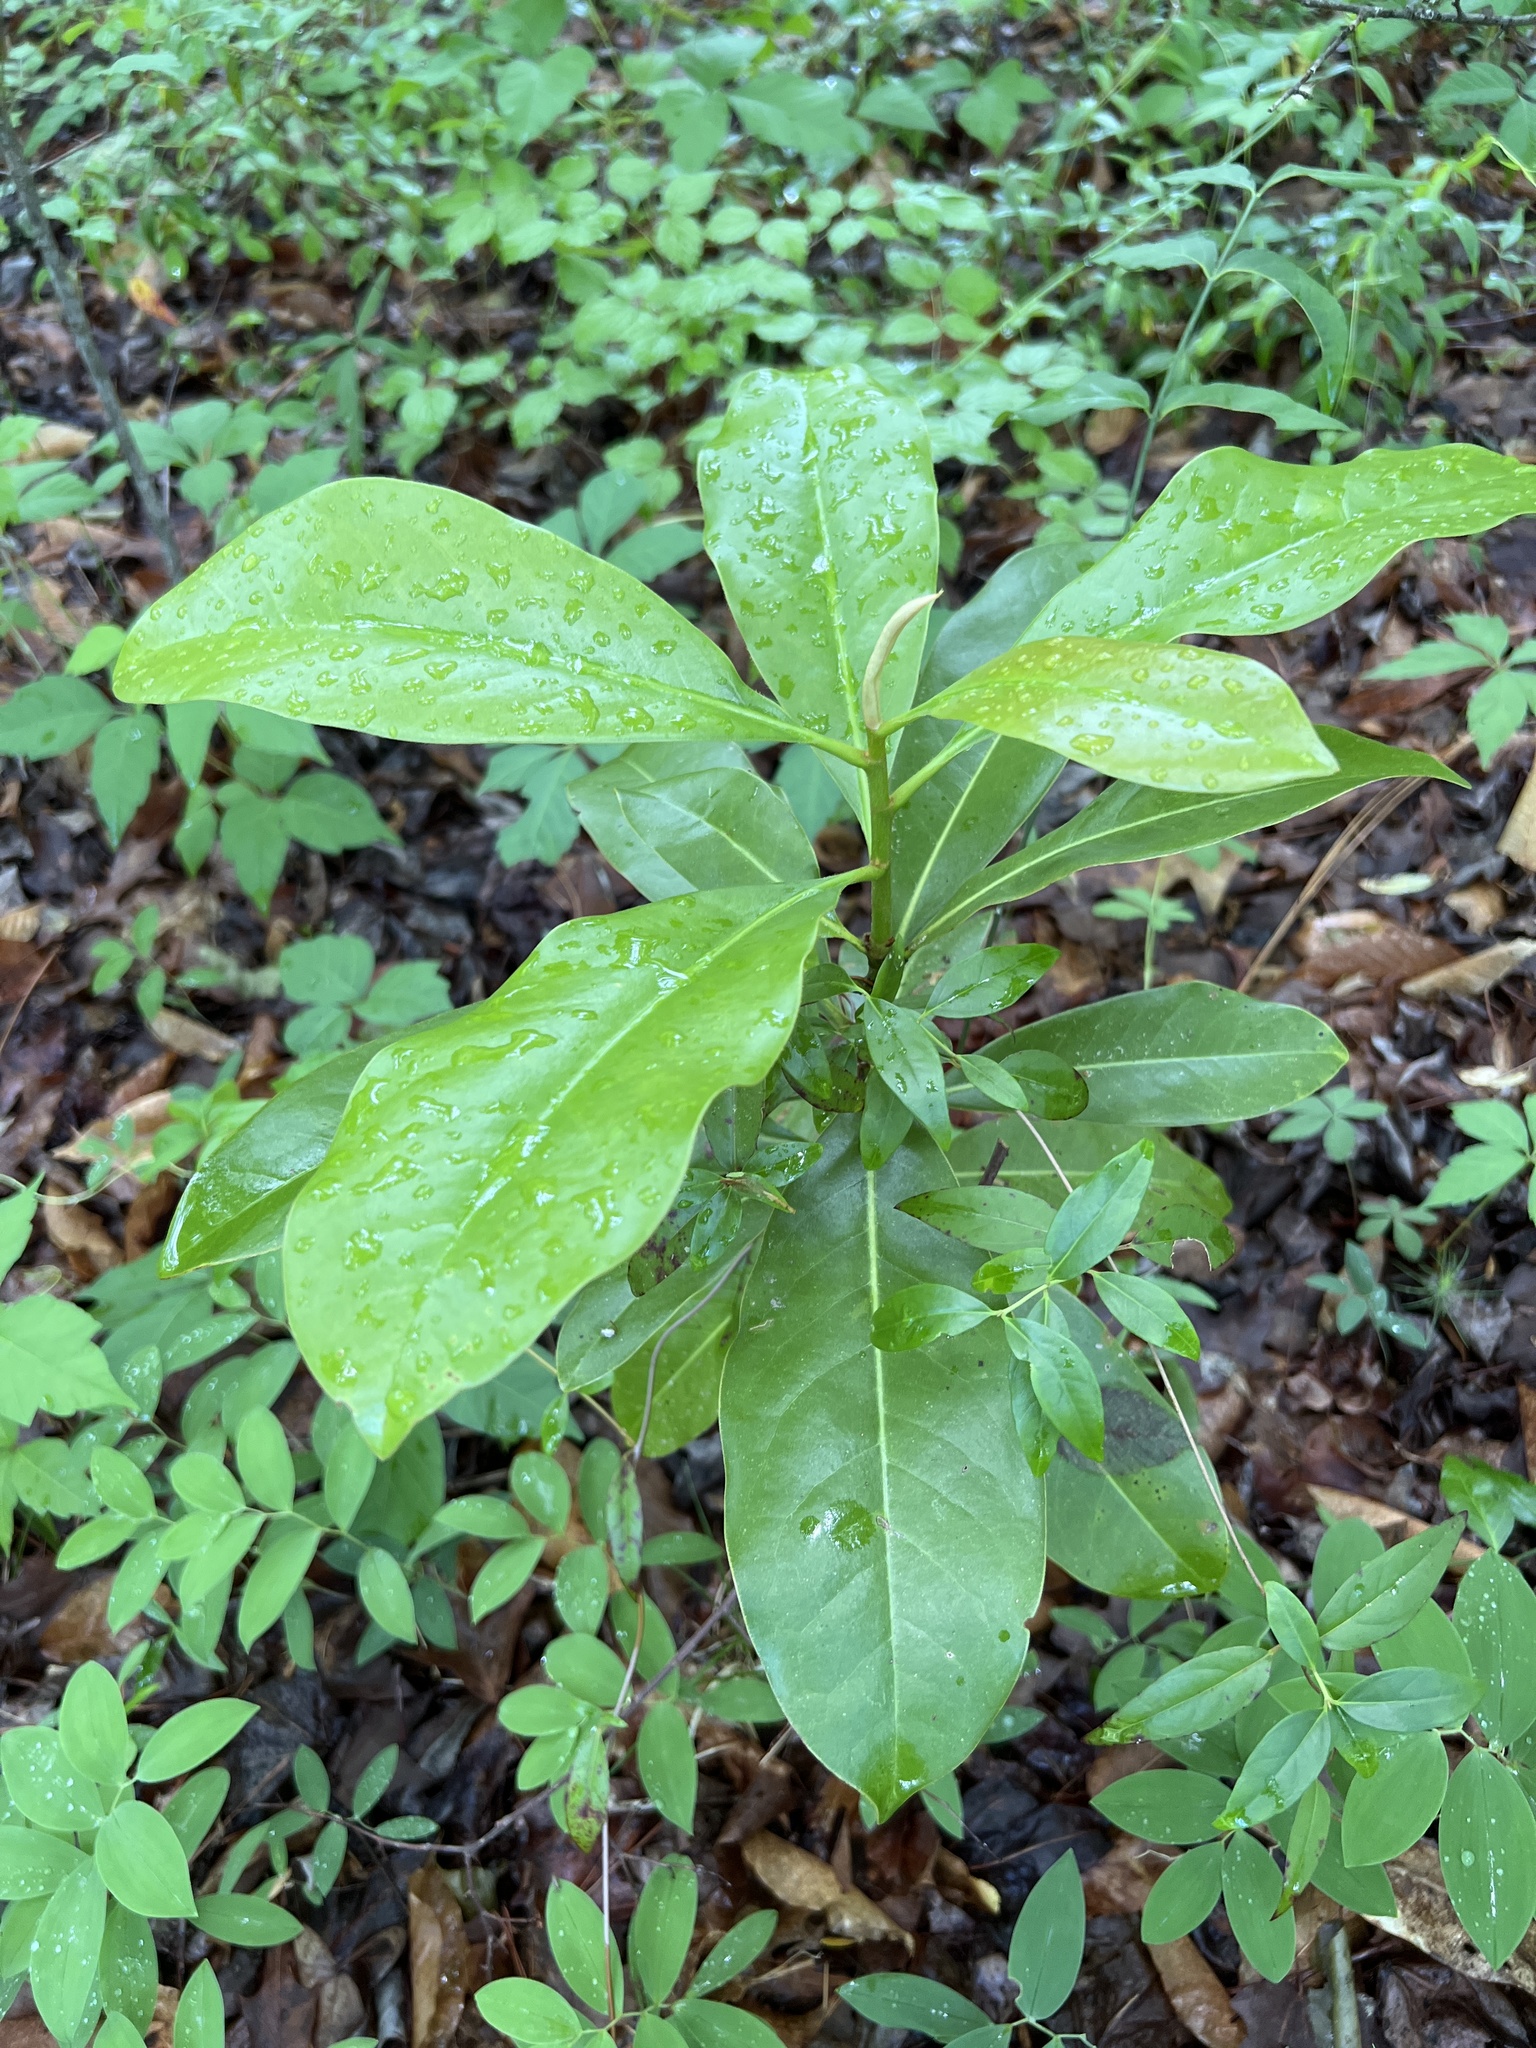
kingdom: Plantae
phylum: Tracheophyta
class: Magnoliopsida
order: Magnoliales
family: Magnoliaceae
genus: Magnolia
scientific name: Magnolia grandiflora
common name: Southern magnolia
